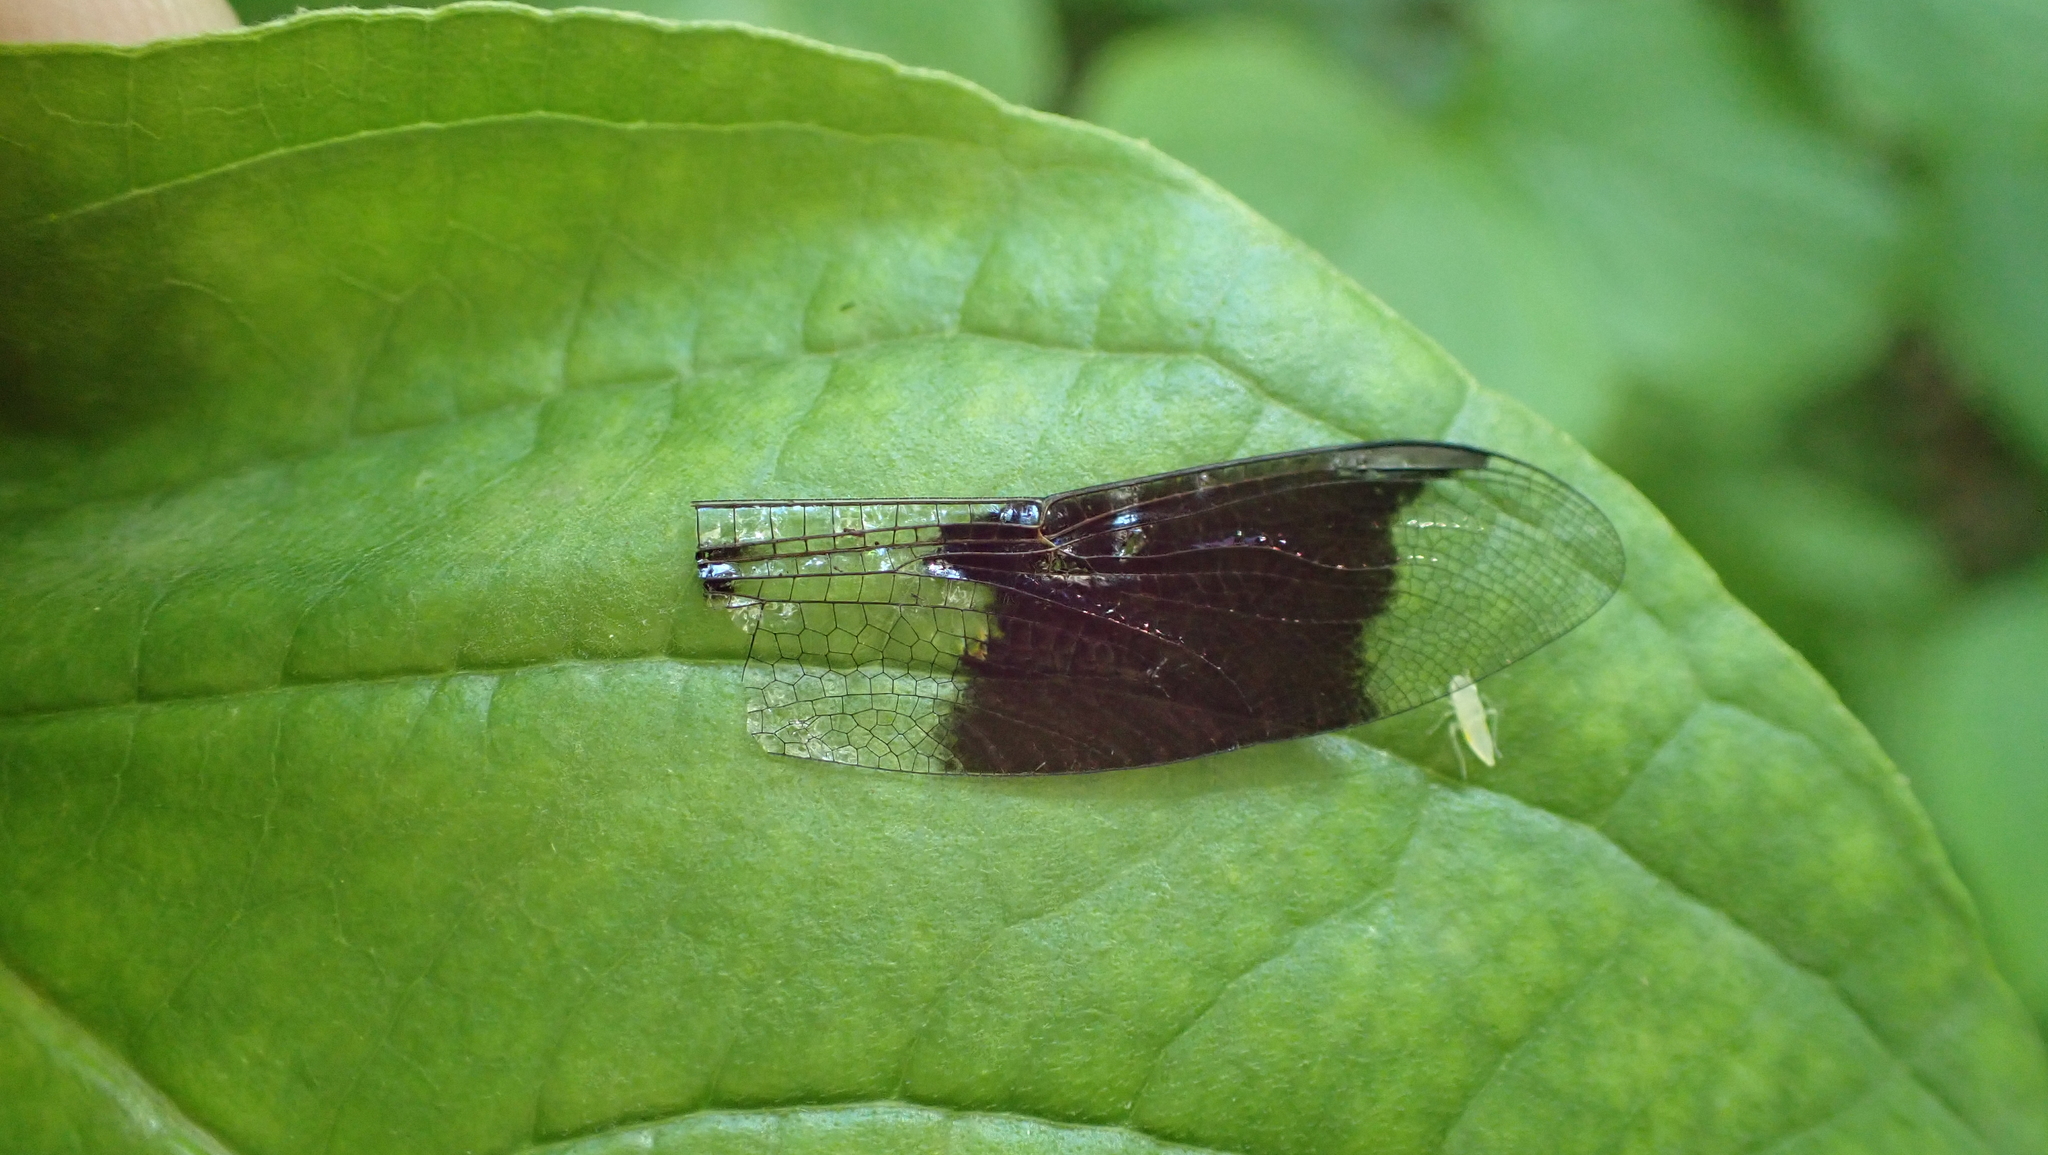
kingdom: Animalia
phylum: Arthropoda
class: Insecta
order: Odonata
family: Libellulidae
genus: Plathemis
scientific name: Plathemis lydia
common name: Common whitetail
